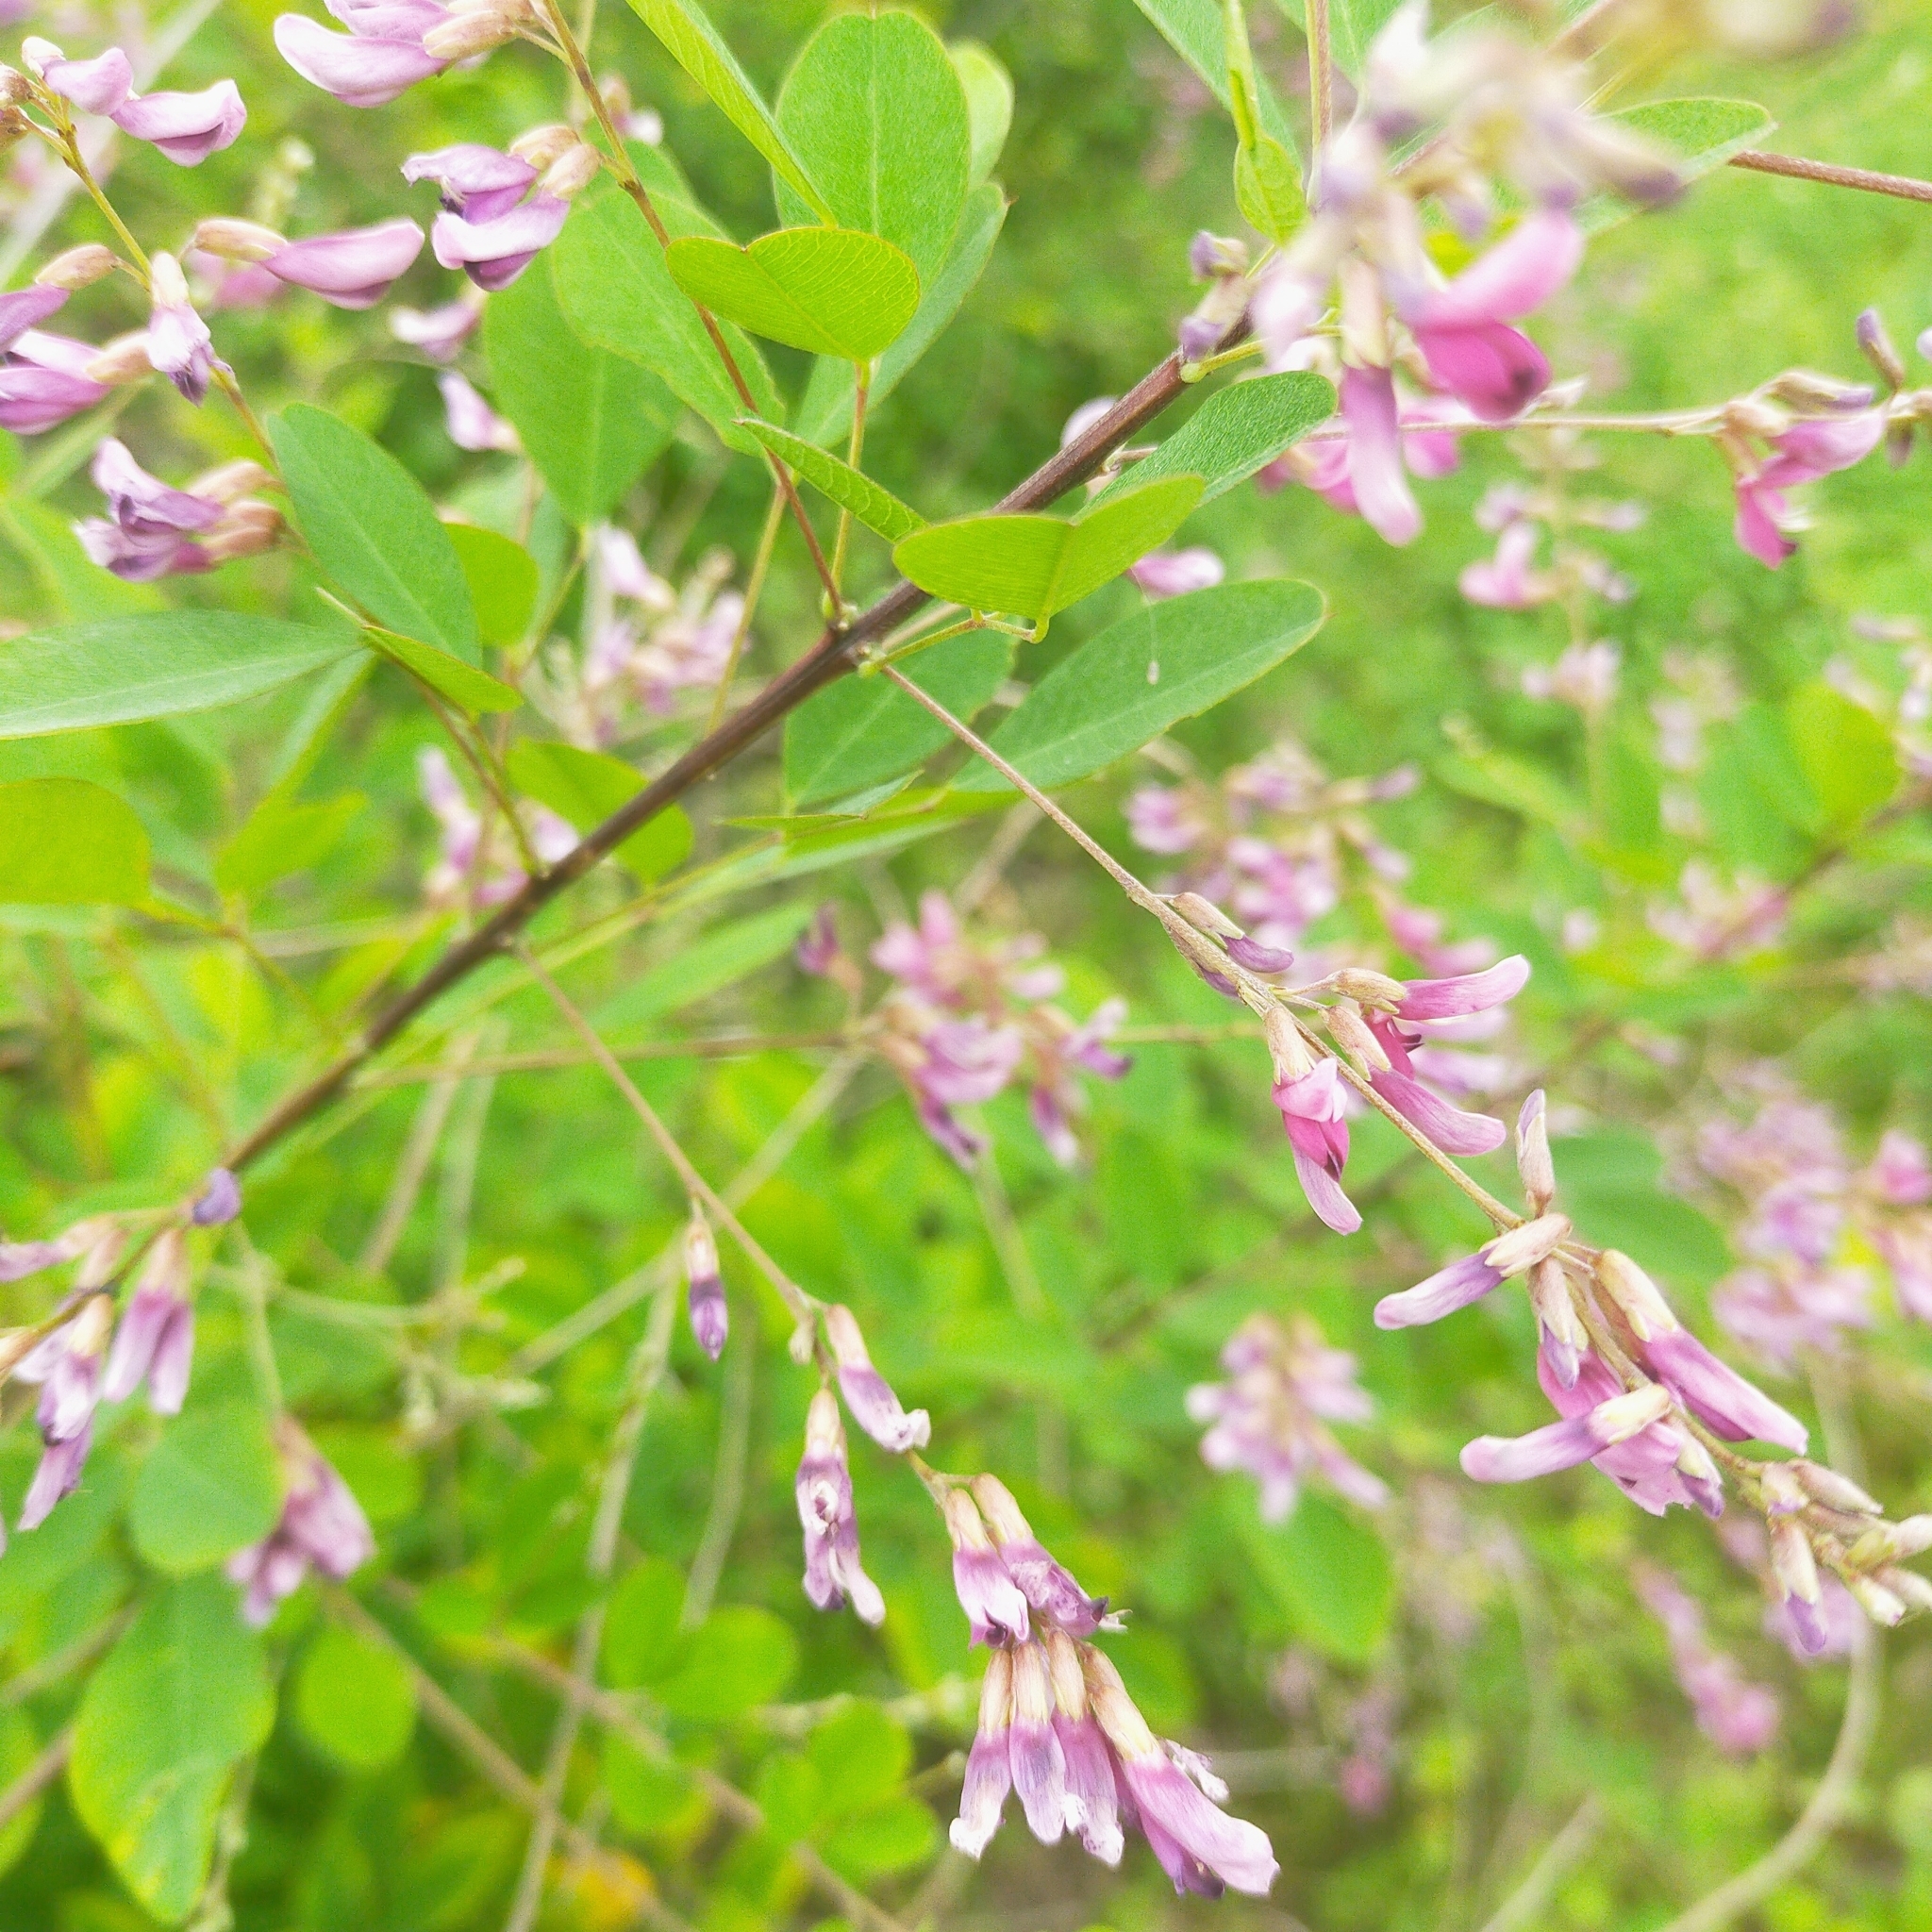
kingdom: Plantae
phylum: Tracheophyta
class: Magnoliopsida
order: Fabales
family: Fabaceae
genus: Lespedeza
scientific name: Lespedeza bicolor
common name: Shrub lespedeza
